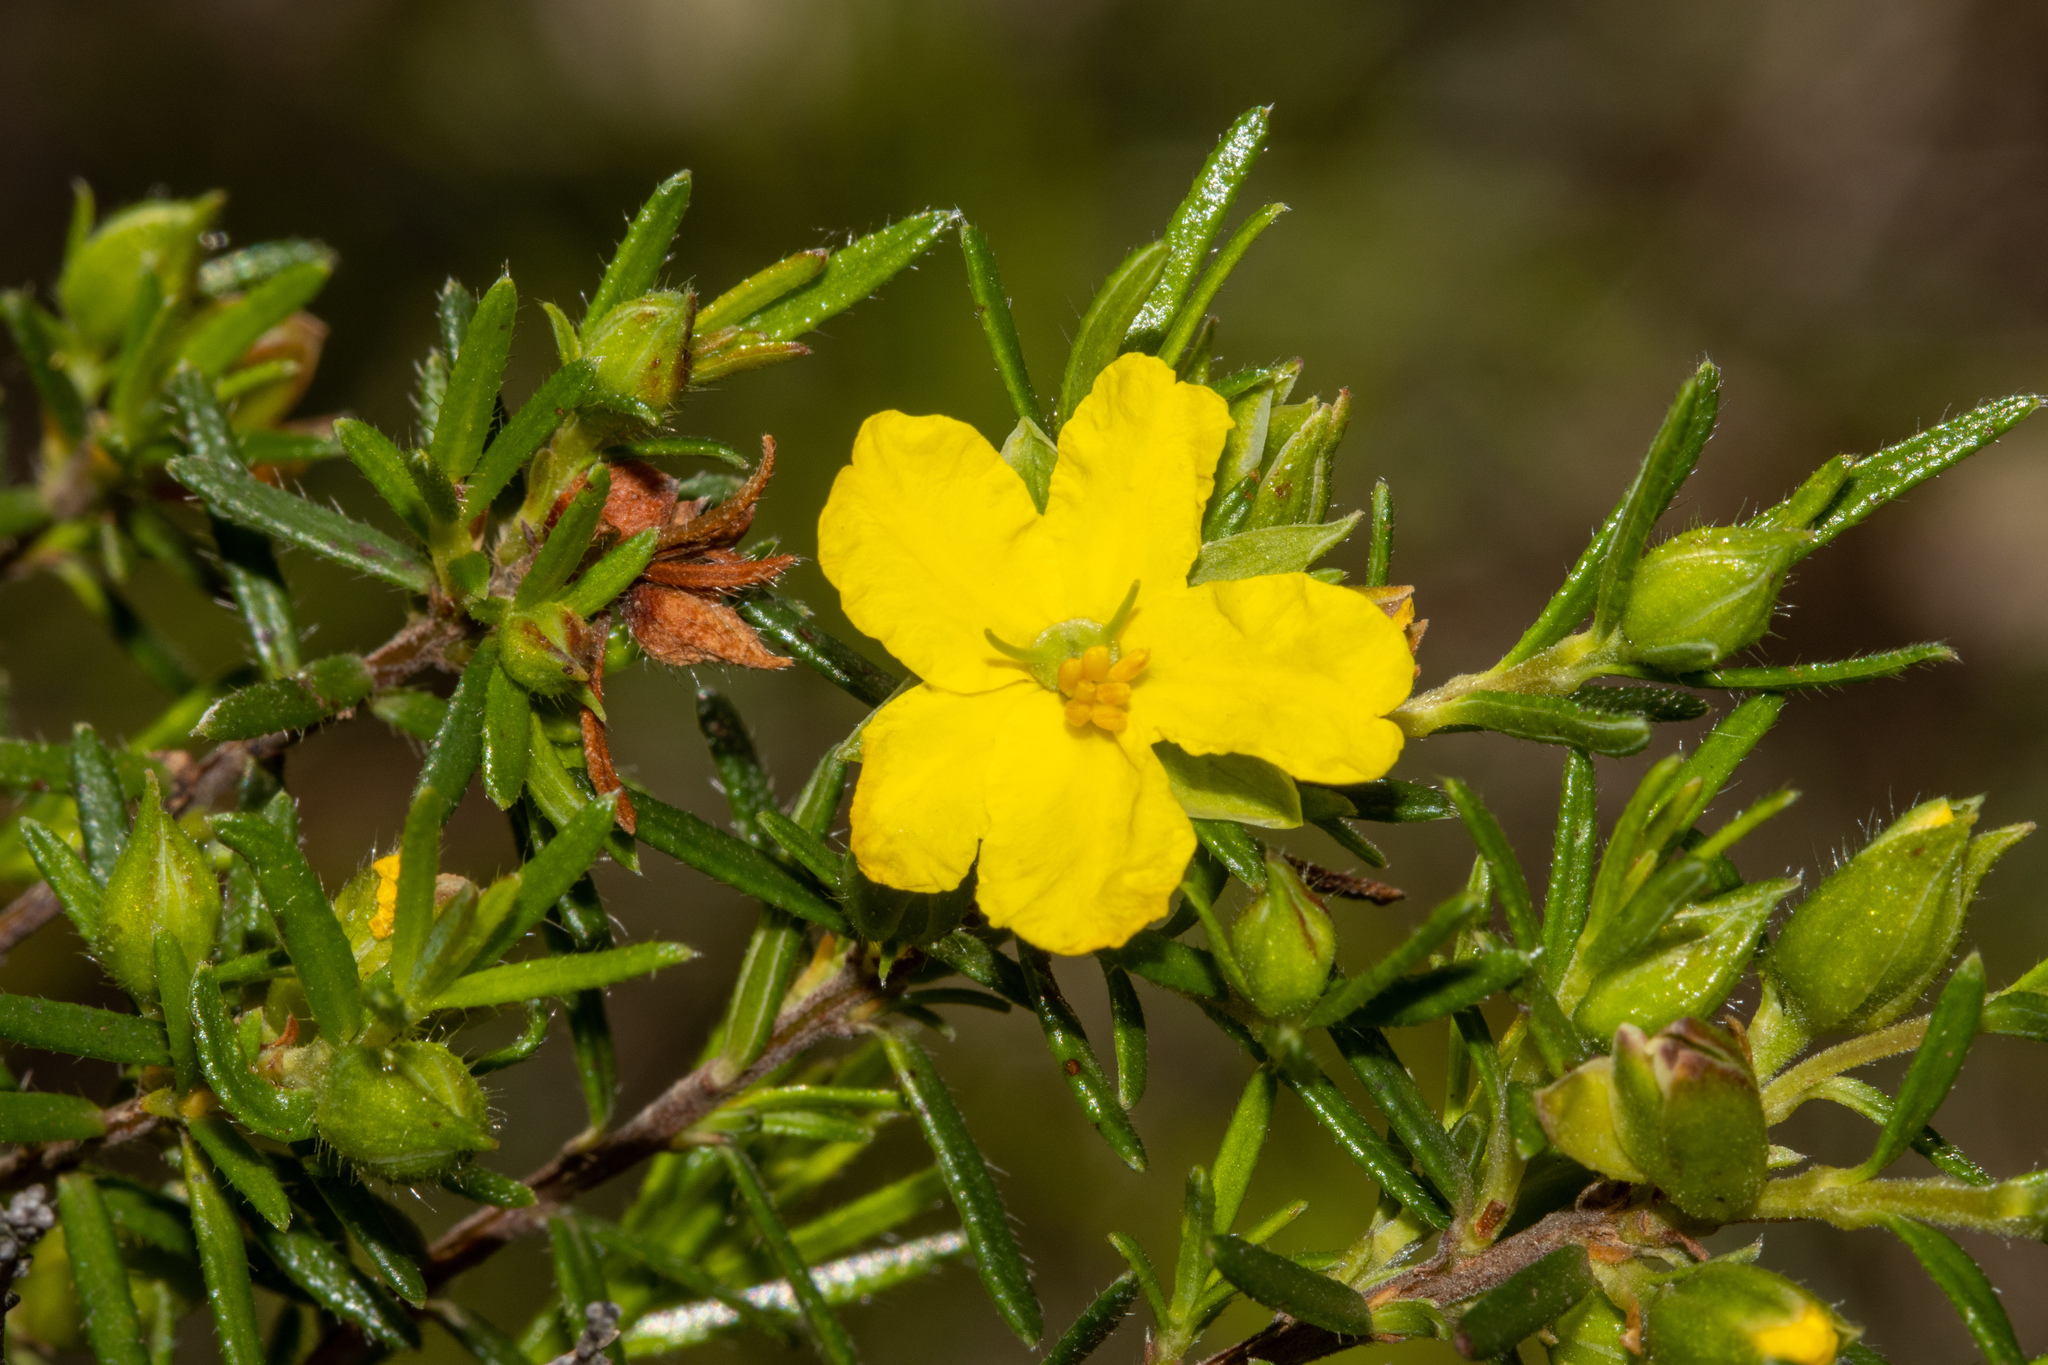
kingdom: Plantae
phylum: Tracheophyta
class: Magnoliopsida
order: Dilleniales
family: Dilleniaceae
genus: Hibbertia
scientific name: Hibbertia riparia
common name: Erect guinea-flower
